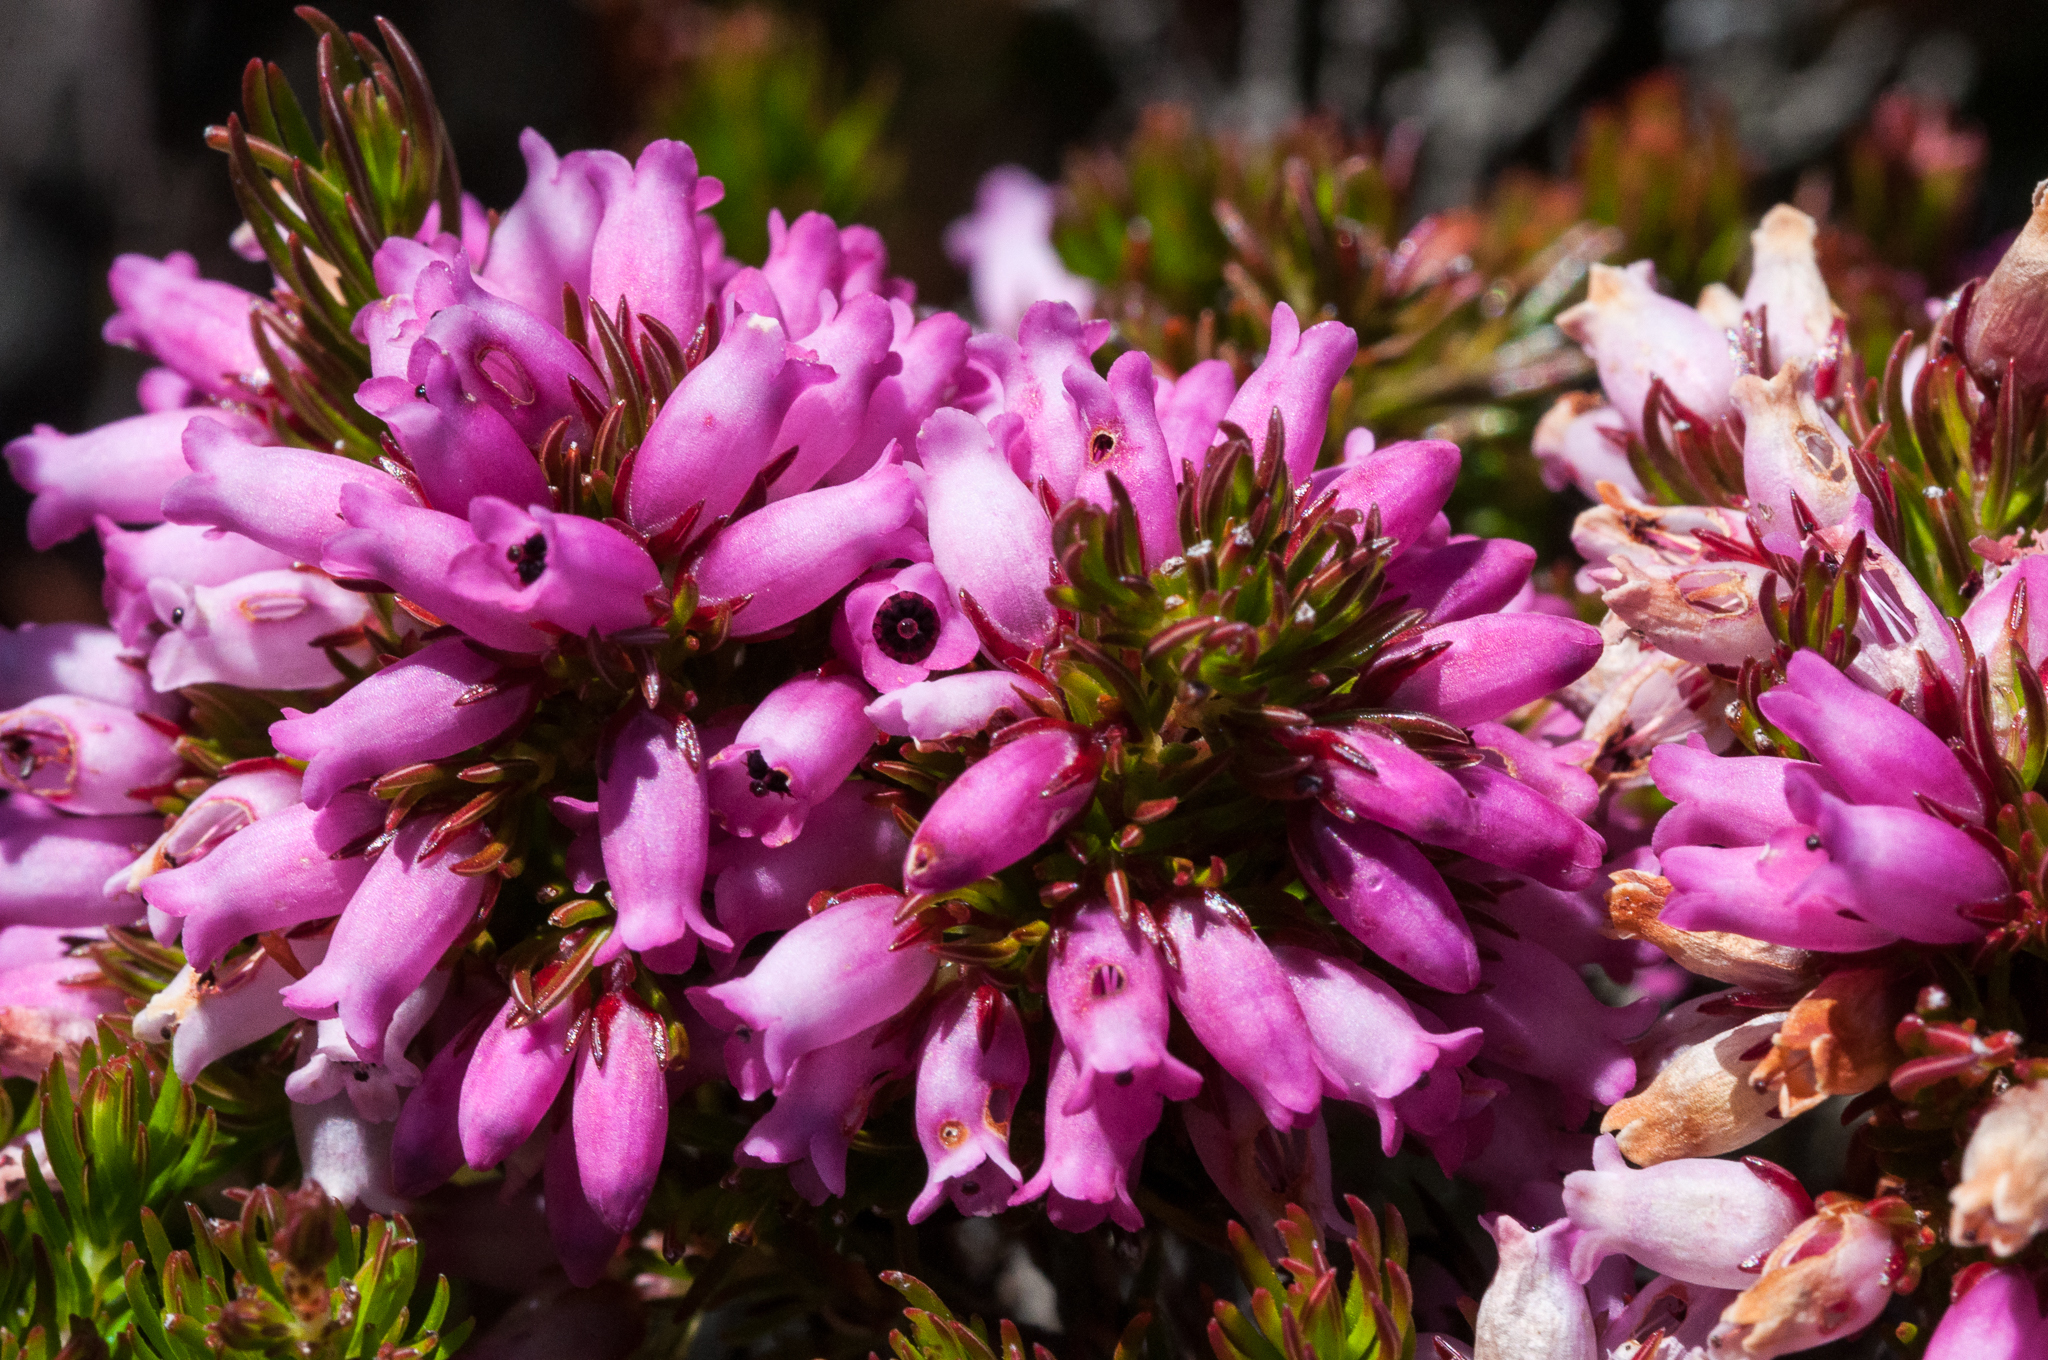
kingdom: Plantae
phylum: Tracheophyta
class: Magnoliopsida
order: Ericales
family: Ericaceae
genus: Erica
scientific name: Erica tenella
